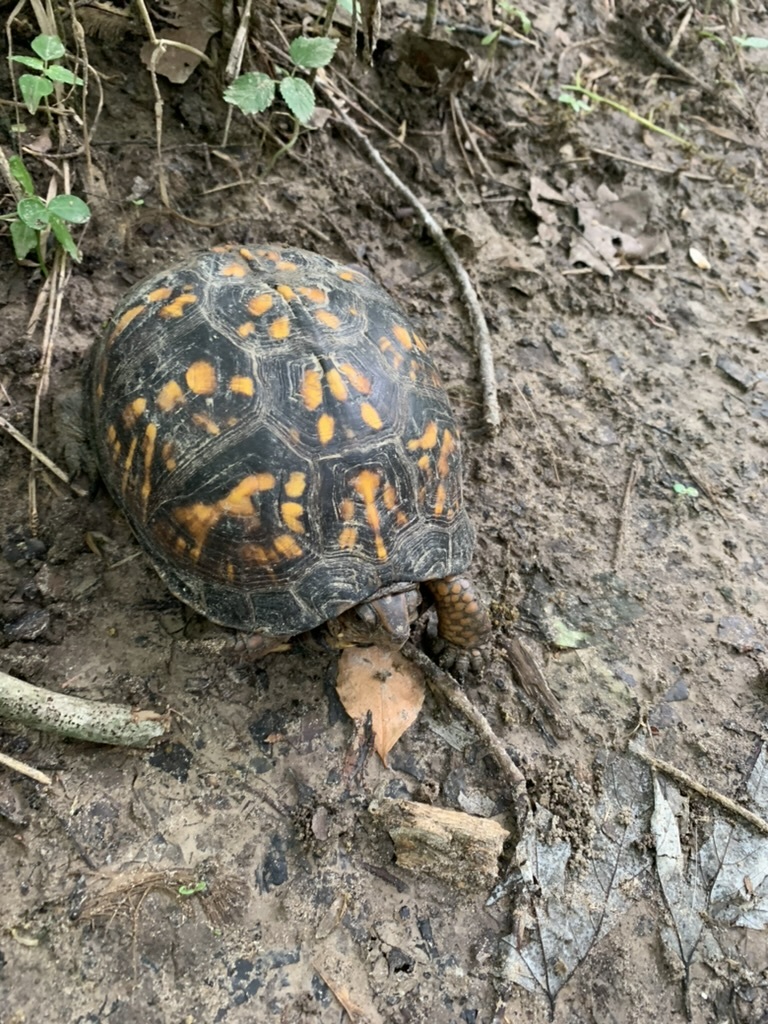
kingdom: Animalia
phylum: Chordata
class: Testudines
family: Emydidae
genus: Terrapene
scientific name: Terrapene carolina
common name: Common box turtle
